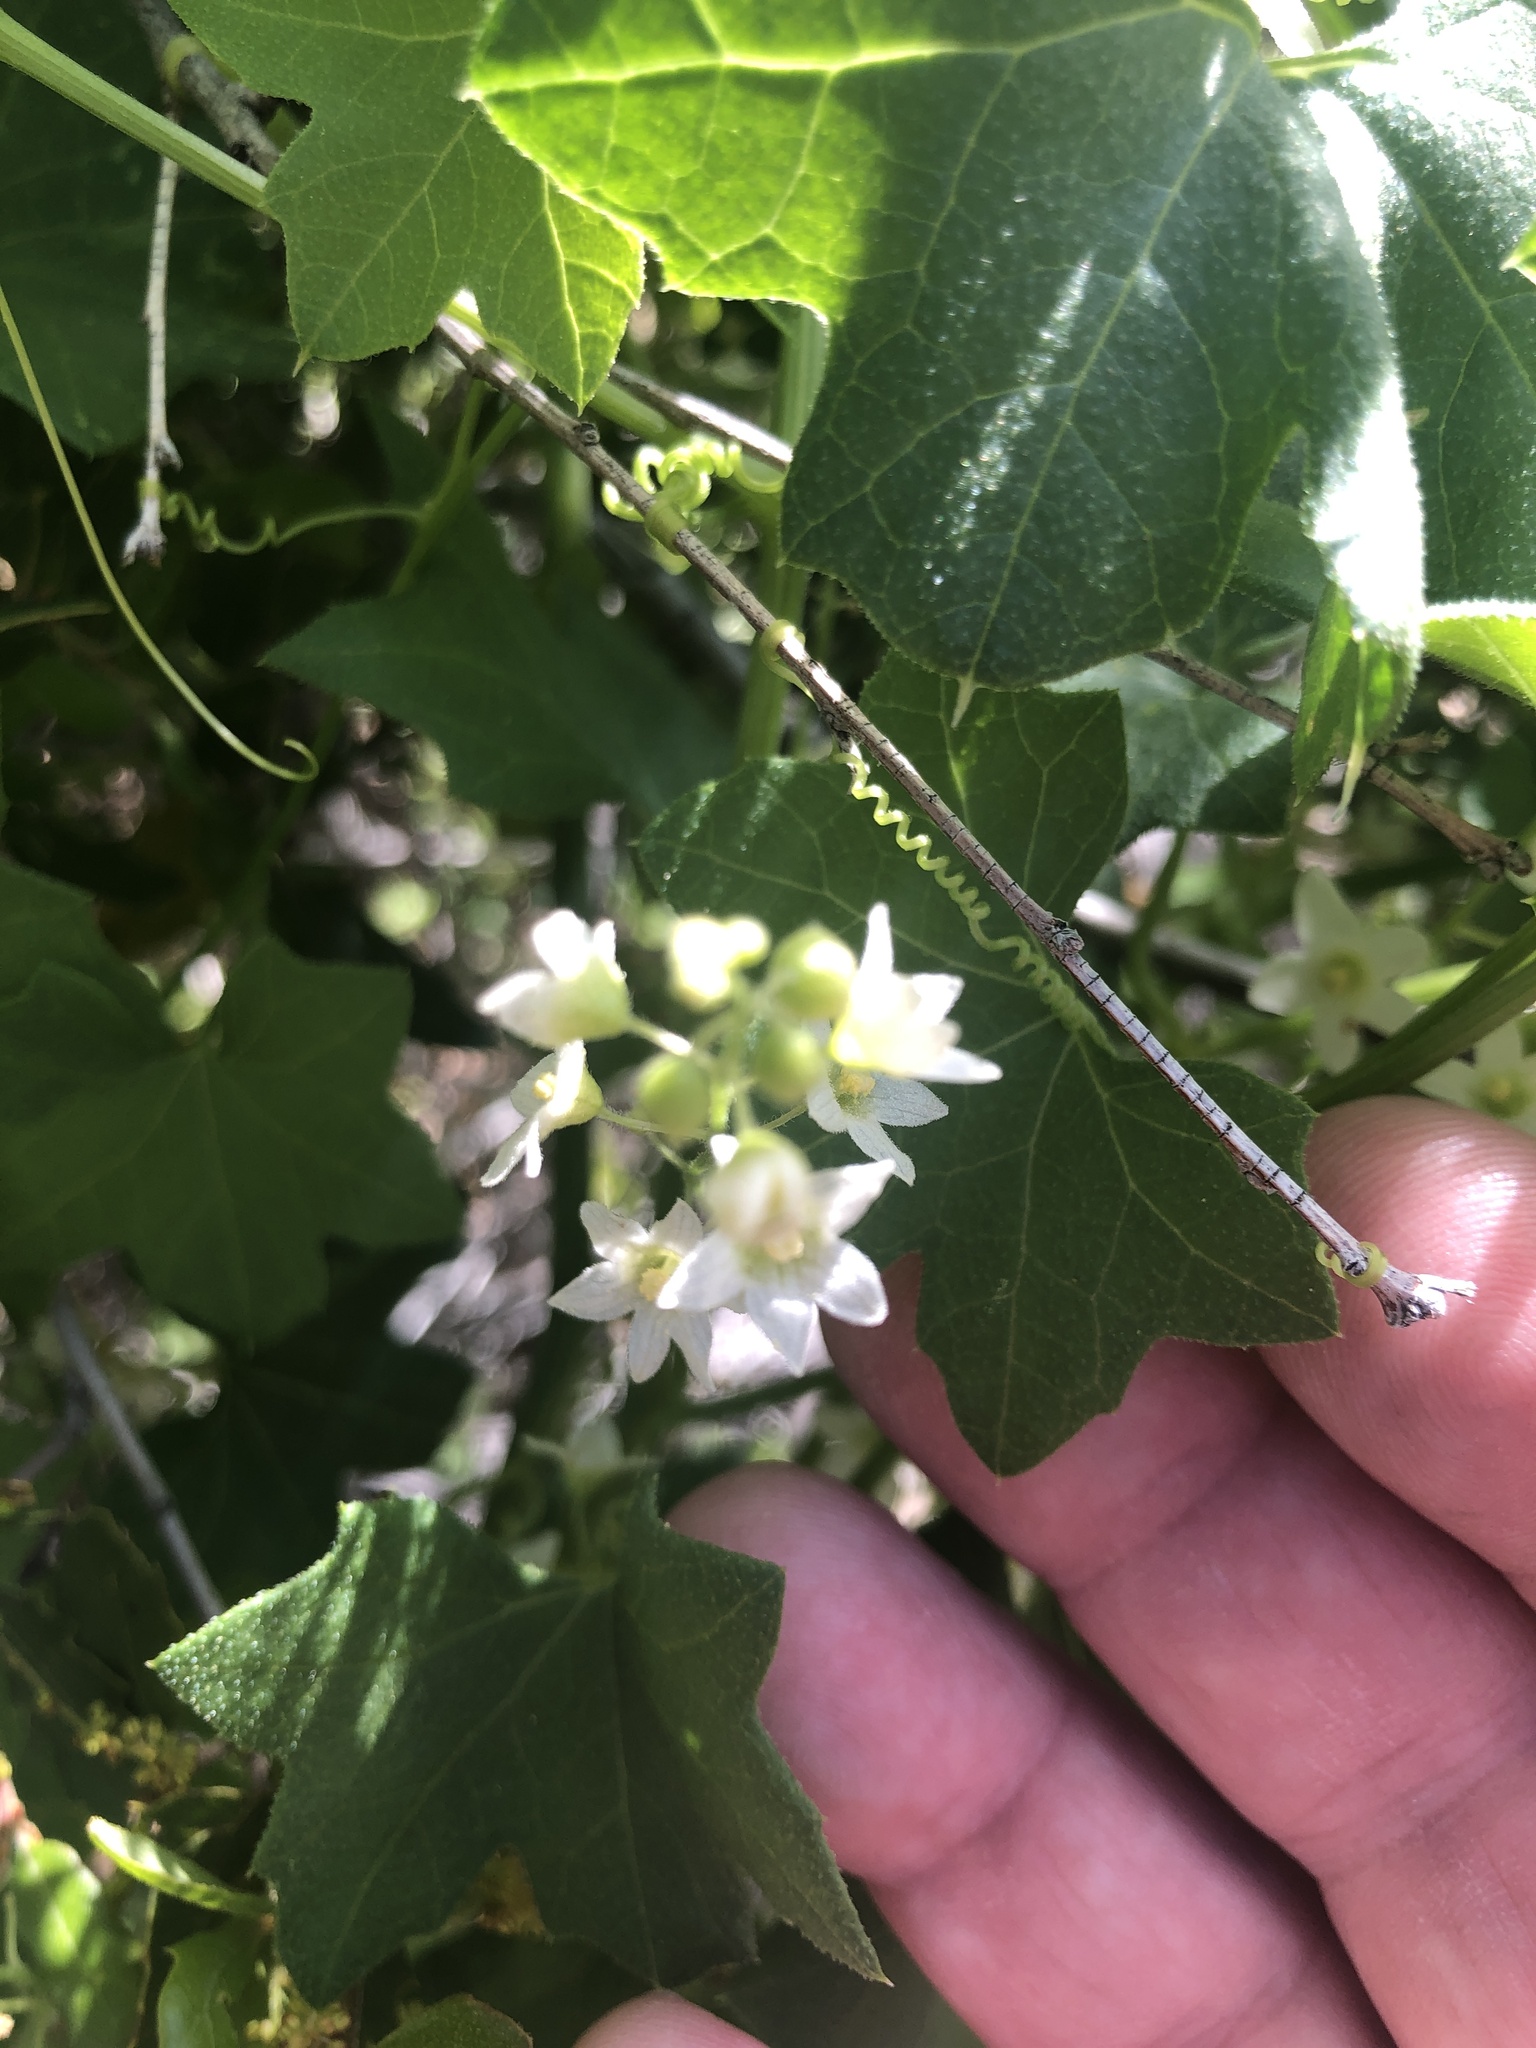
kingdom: Plantae
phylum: Tracheophyta
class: Magnoliopsida
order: Cucurbitales
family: Cucurbitaceae
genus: Marah
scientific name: Marah macrocarpa
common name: Cucamonga manroot
